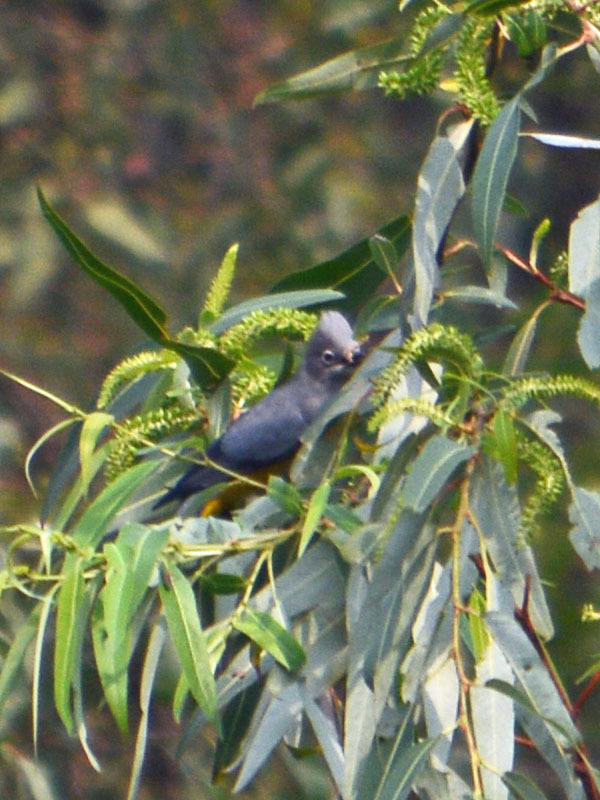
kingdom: Animalia
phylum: Chordata
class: Aves
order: Passeriformes
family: Ptilogonatidae
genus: Ptilogonys
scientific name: Ptilogonys cinereus
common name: Gray silky-flycatcher
